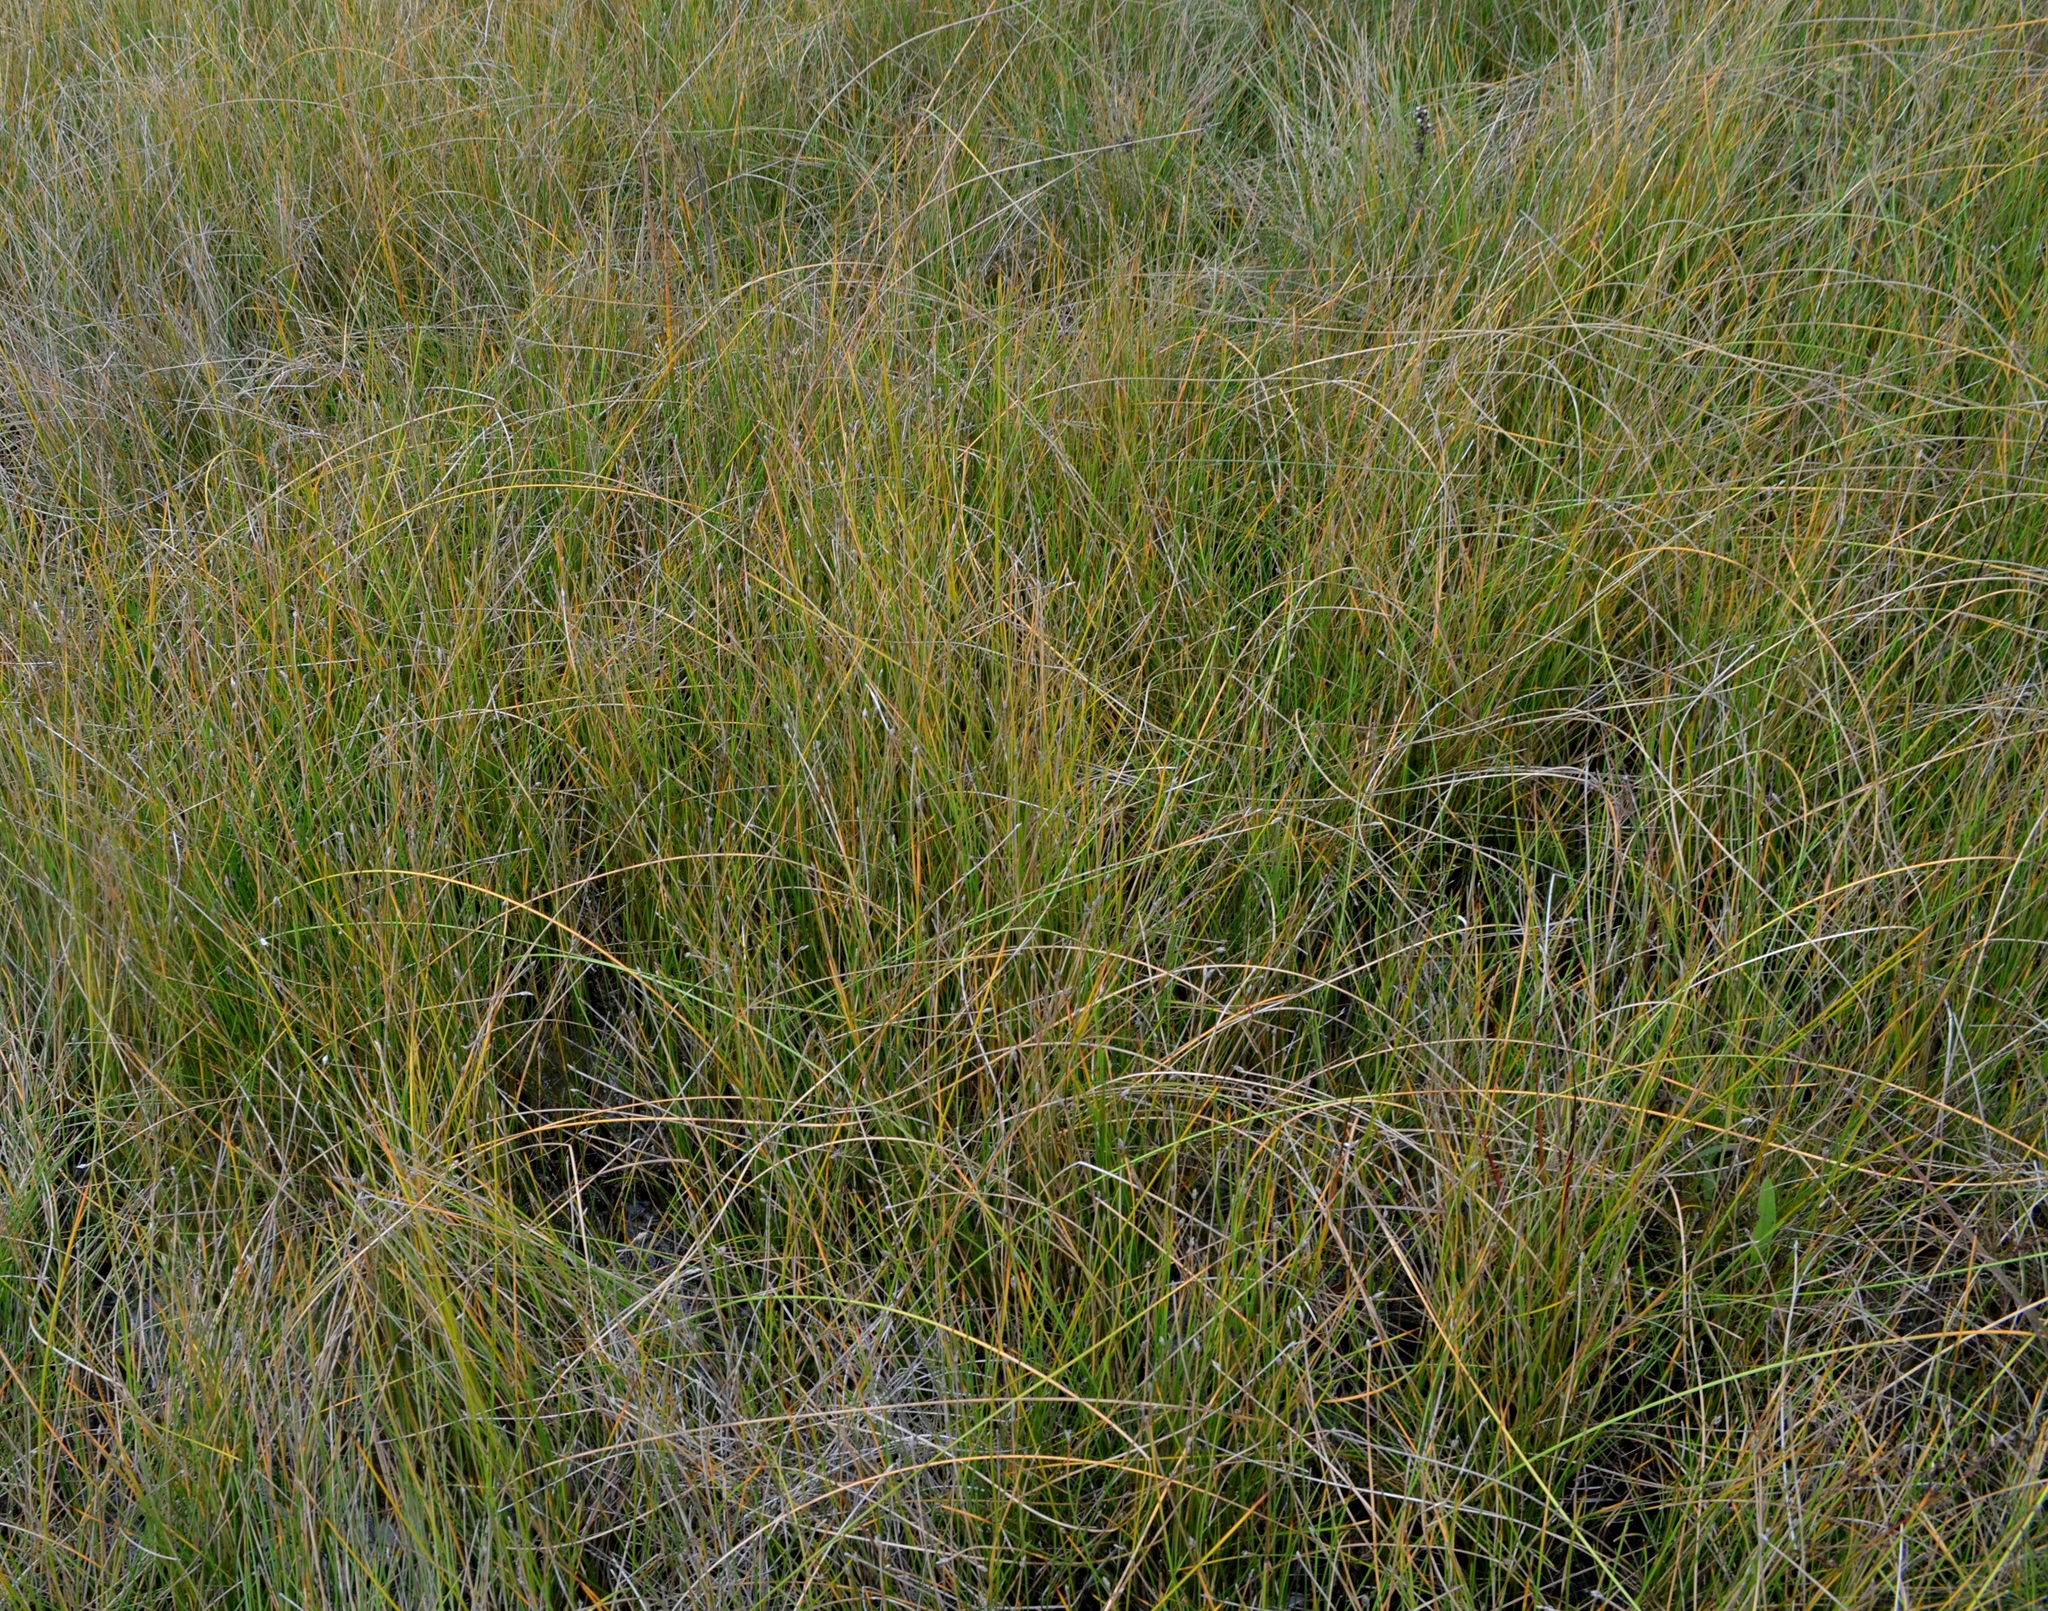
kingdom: Plantae
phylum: Tracheophyta
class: Liliopsida
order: Poales
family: Cyperaceae
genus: Eleocharis
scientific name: Eleocharis rostellata
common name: Walking sedge
